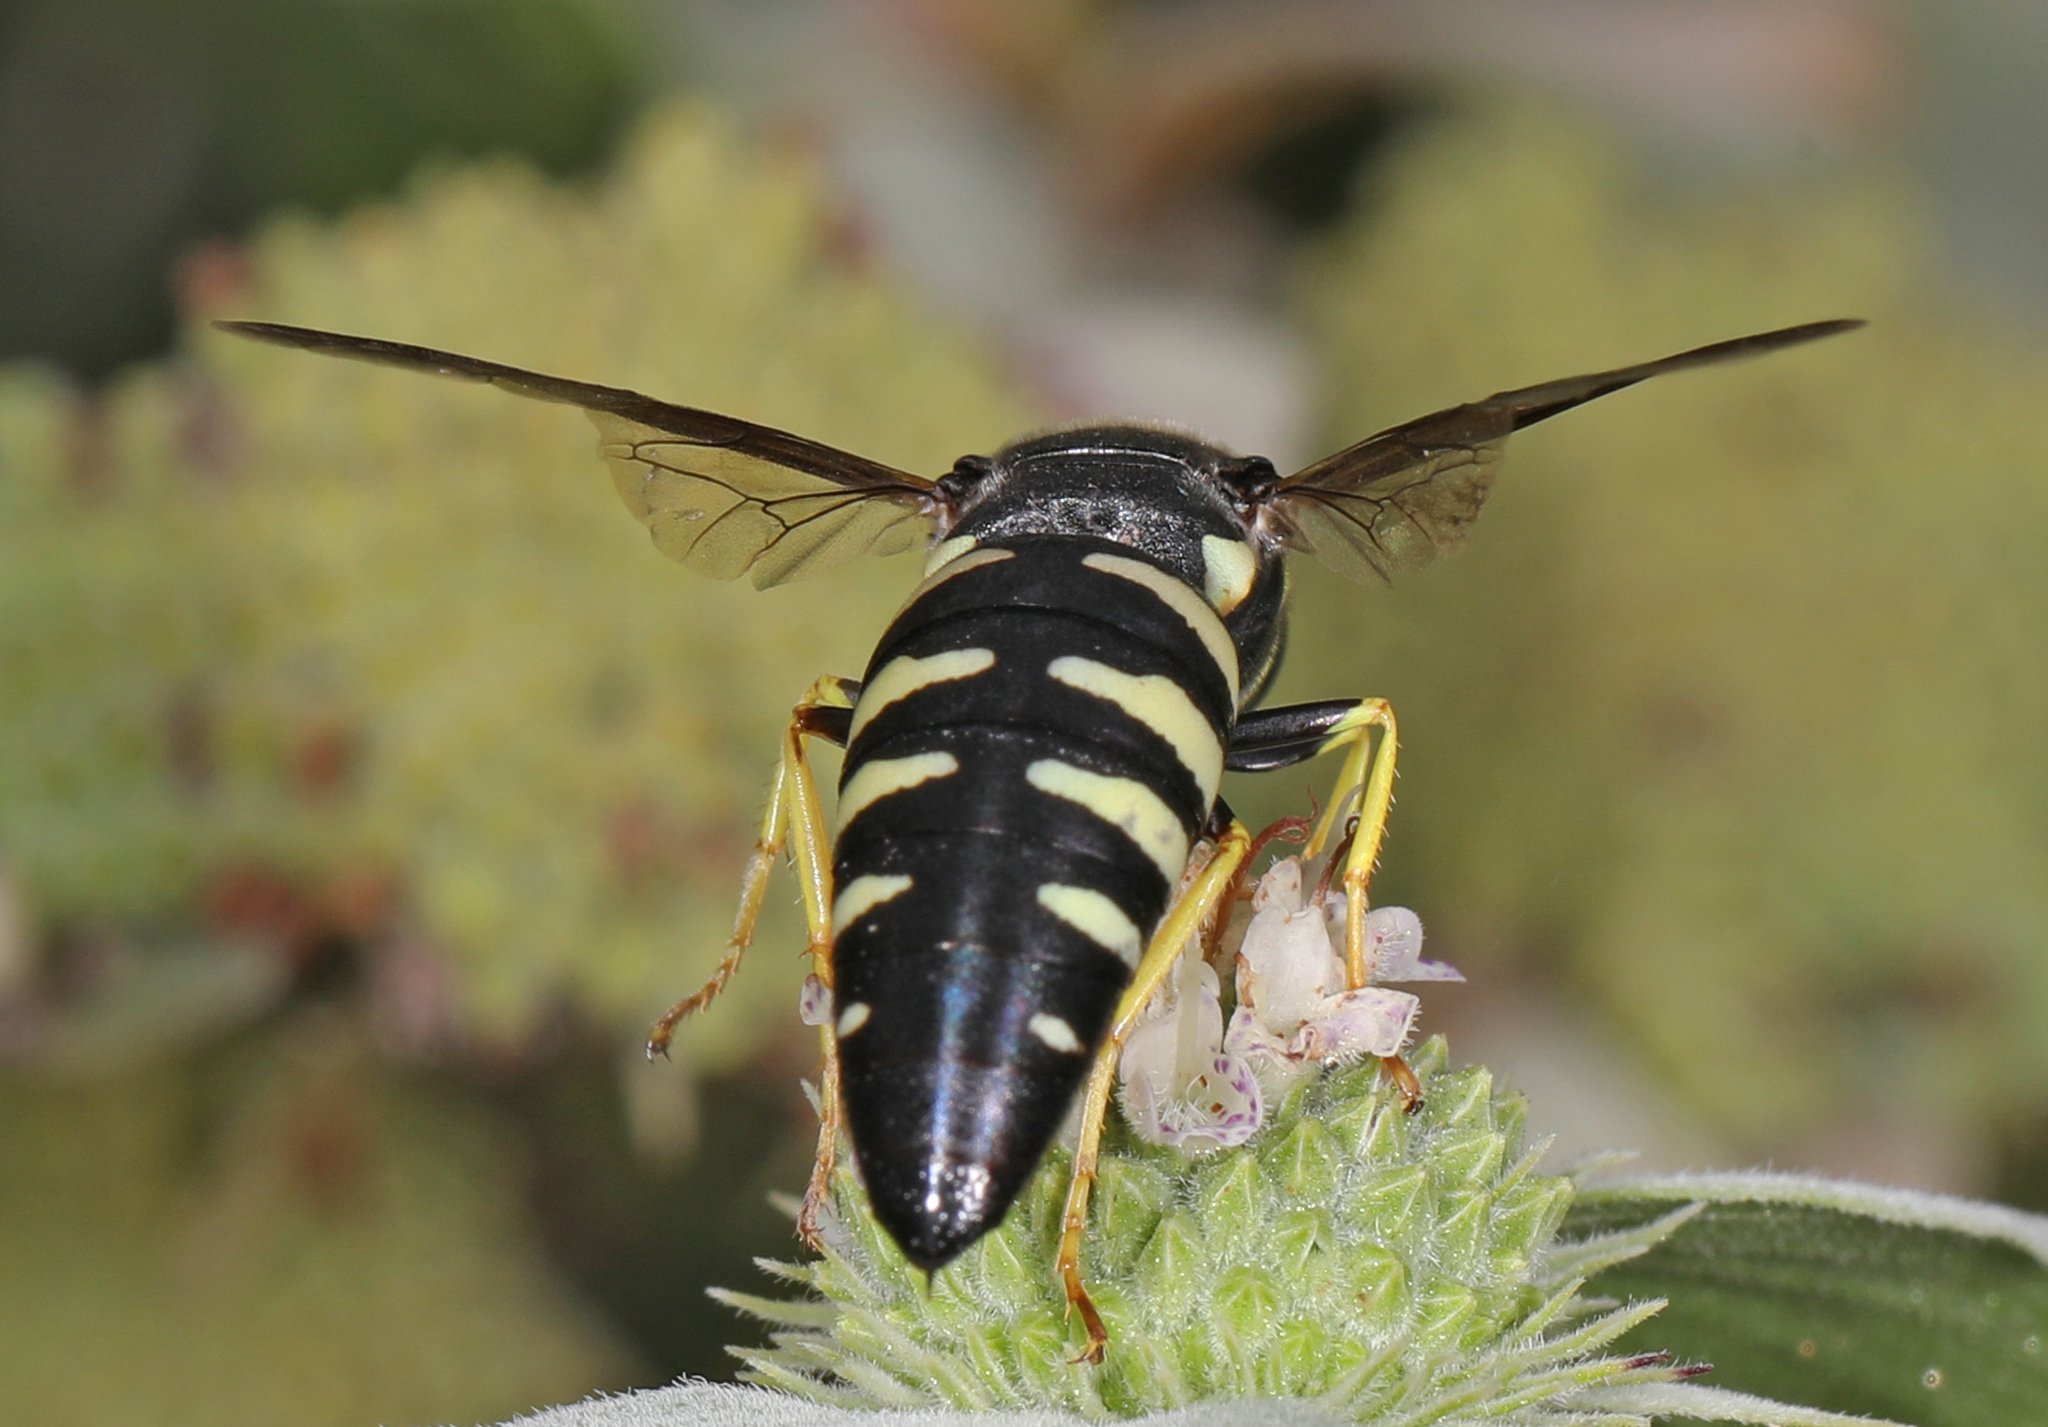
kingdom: Animalia
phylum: Arthropoda
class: Insecta
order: Hymenoptera
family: Crabronidae
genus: Bicyrtes
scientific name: Bicyrtes quadrifasciatus
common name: Four-banded stink bug hunter wasp
